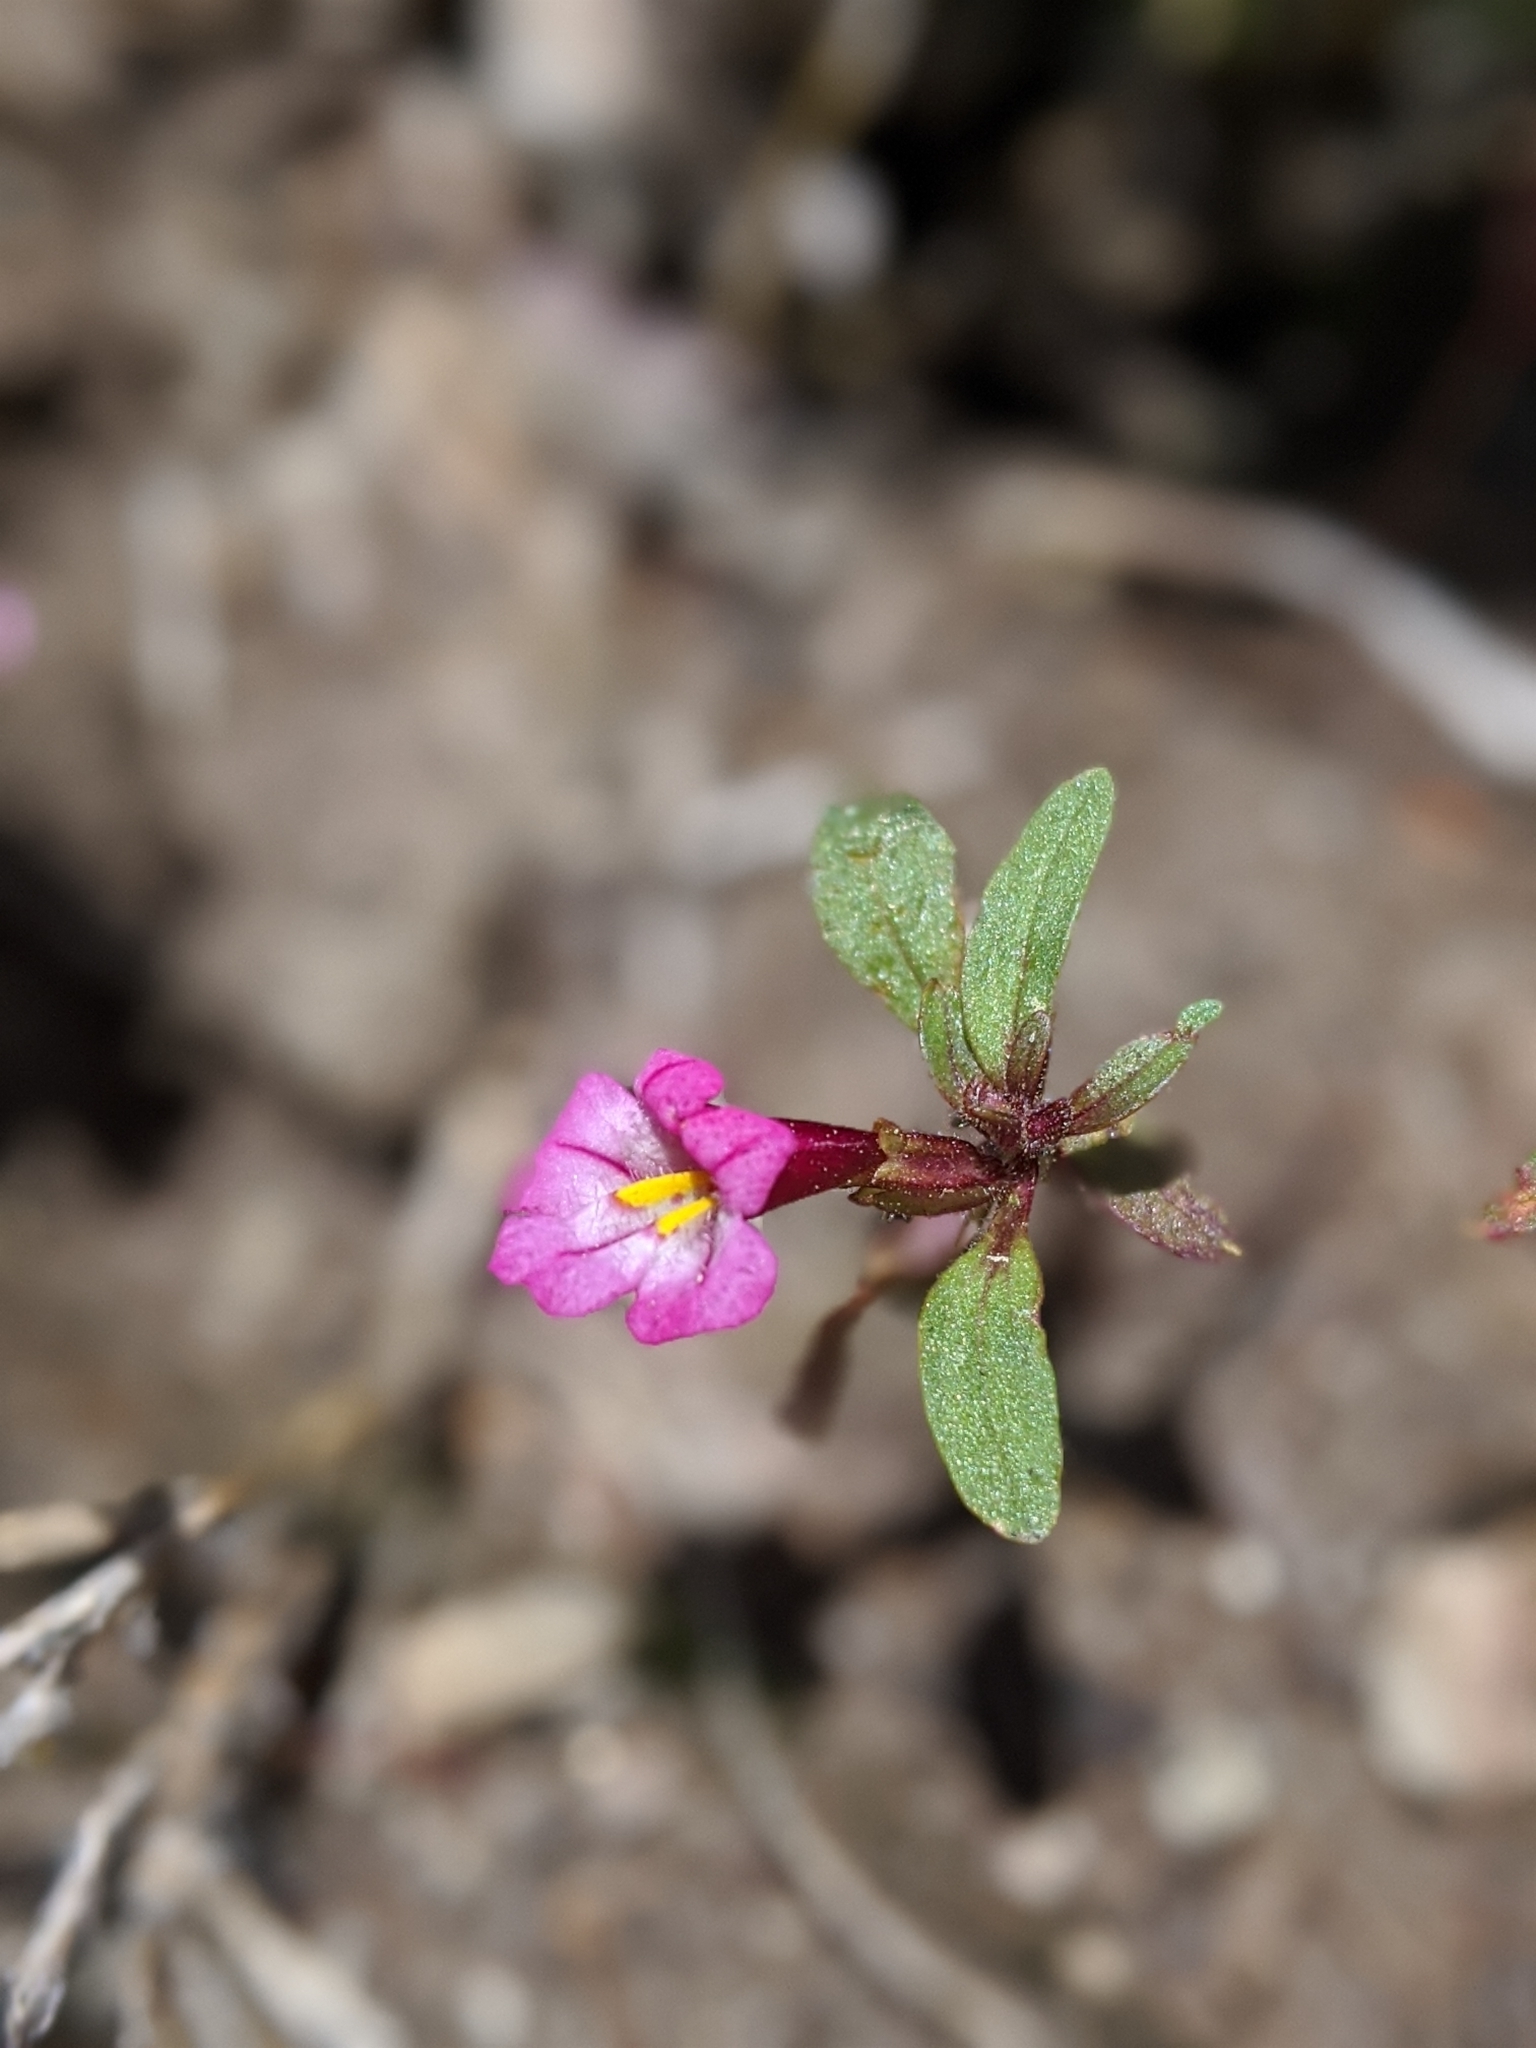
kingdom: Plantae
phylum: Tracheophyta
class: Magnoliopsida
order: Lamiales
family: Phrymaceae
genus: Diplacus
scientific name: Diplacus torreyi
